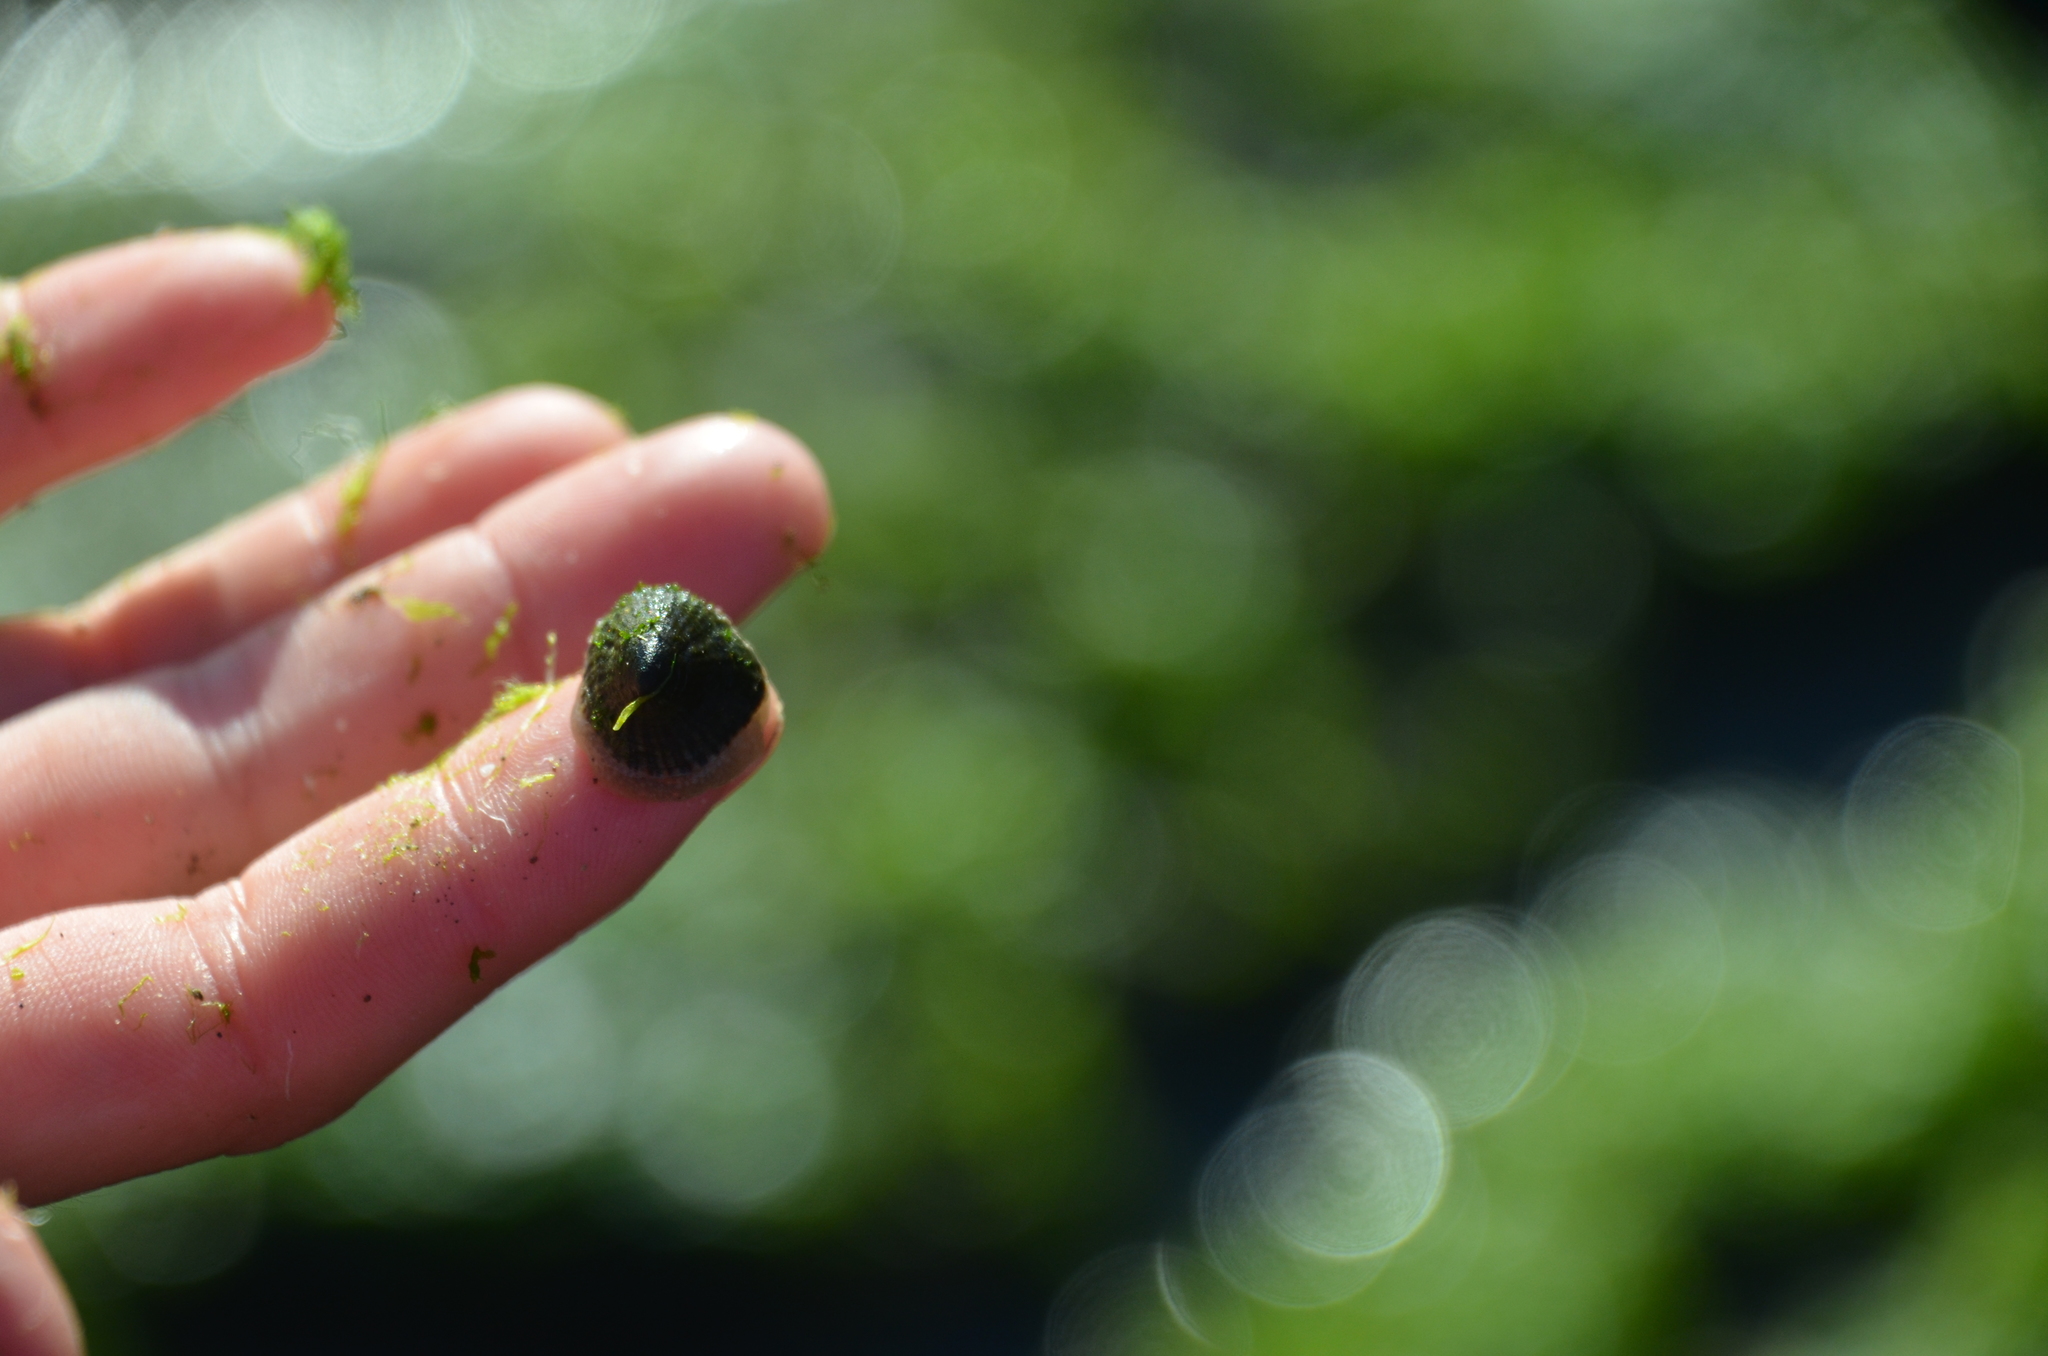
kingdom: Animalia
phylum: Mollusca
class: Gastropoda
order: Siphonariida
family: Siphonariidae
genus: Siphonaria
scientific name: Siphonaria lessonii
